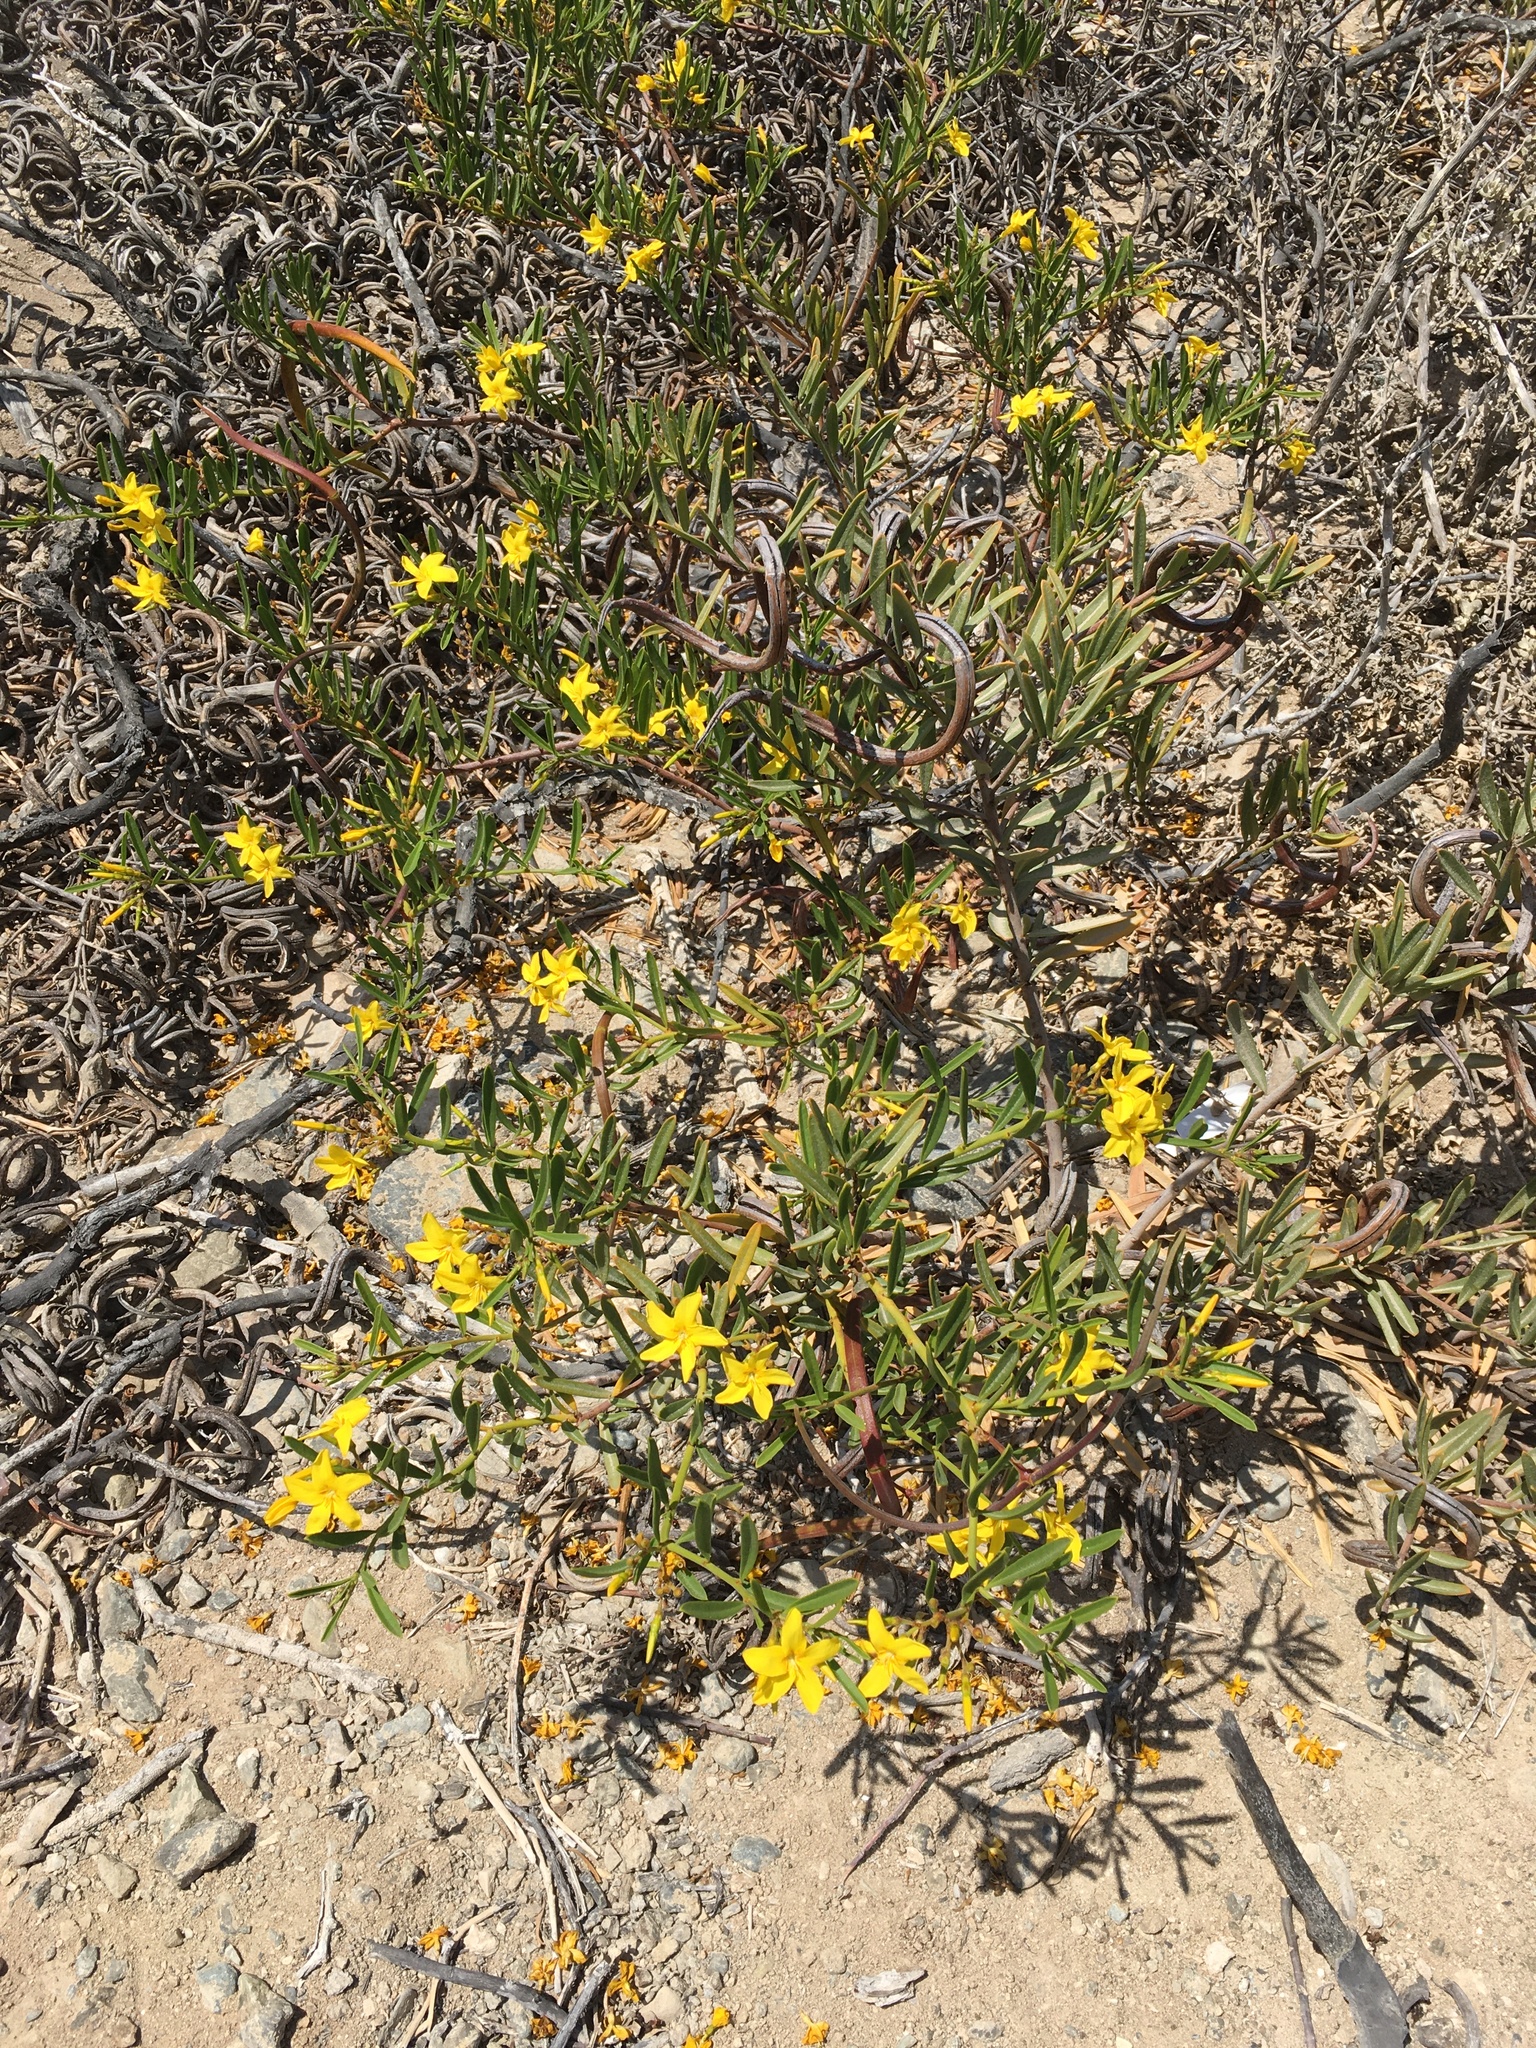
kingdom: Plantae
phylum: Tracheophyta
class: Magnoliopsida
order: Gentianales
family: Apocynaceae
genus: Skytanthus
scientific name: Skytanthus acutus
